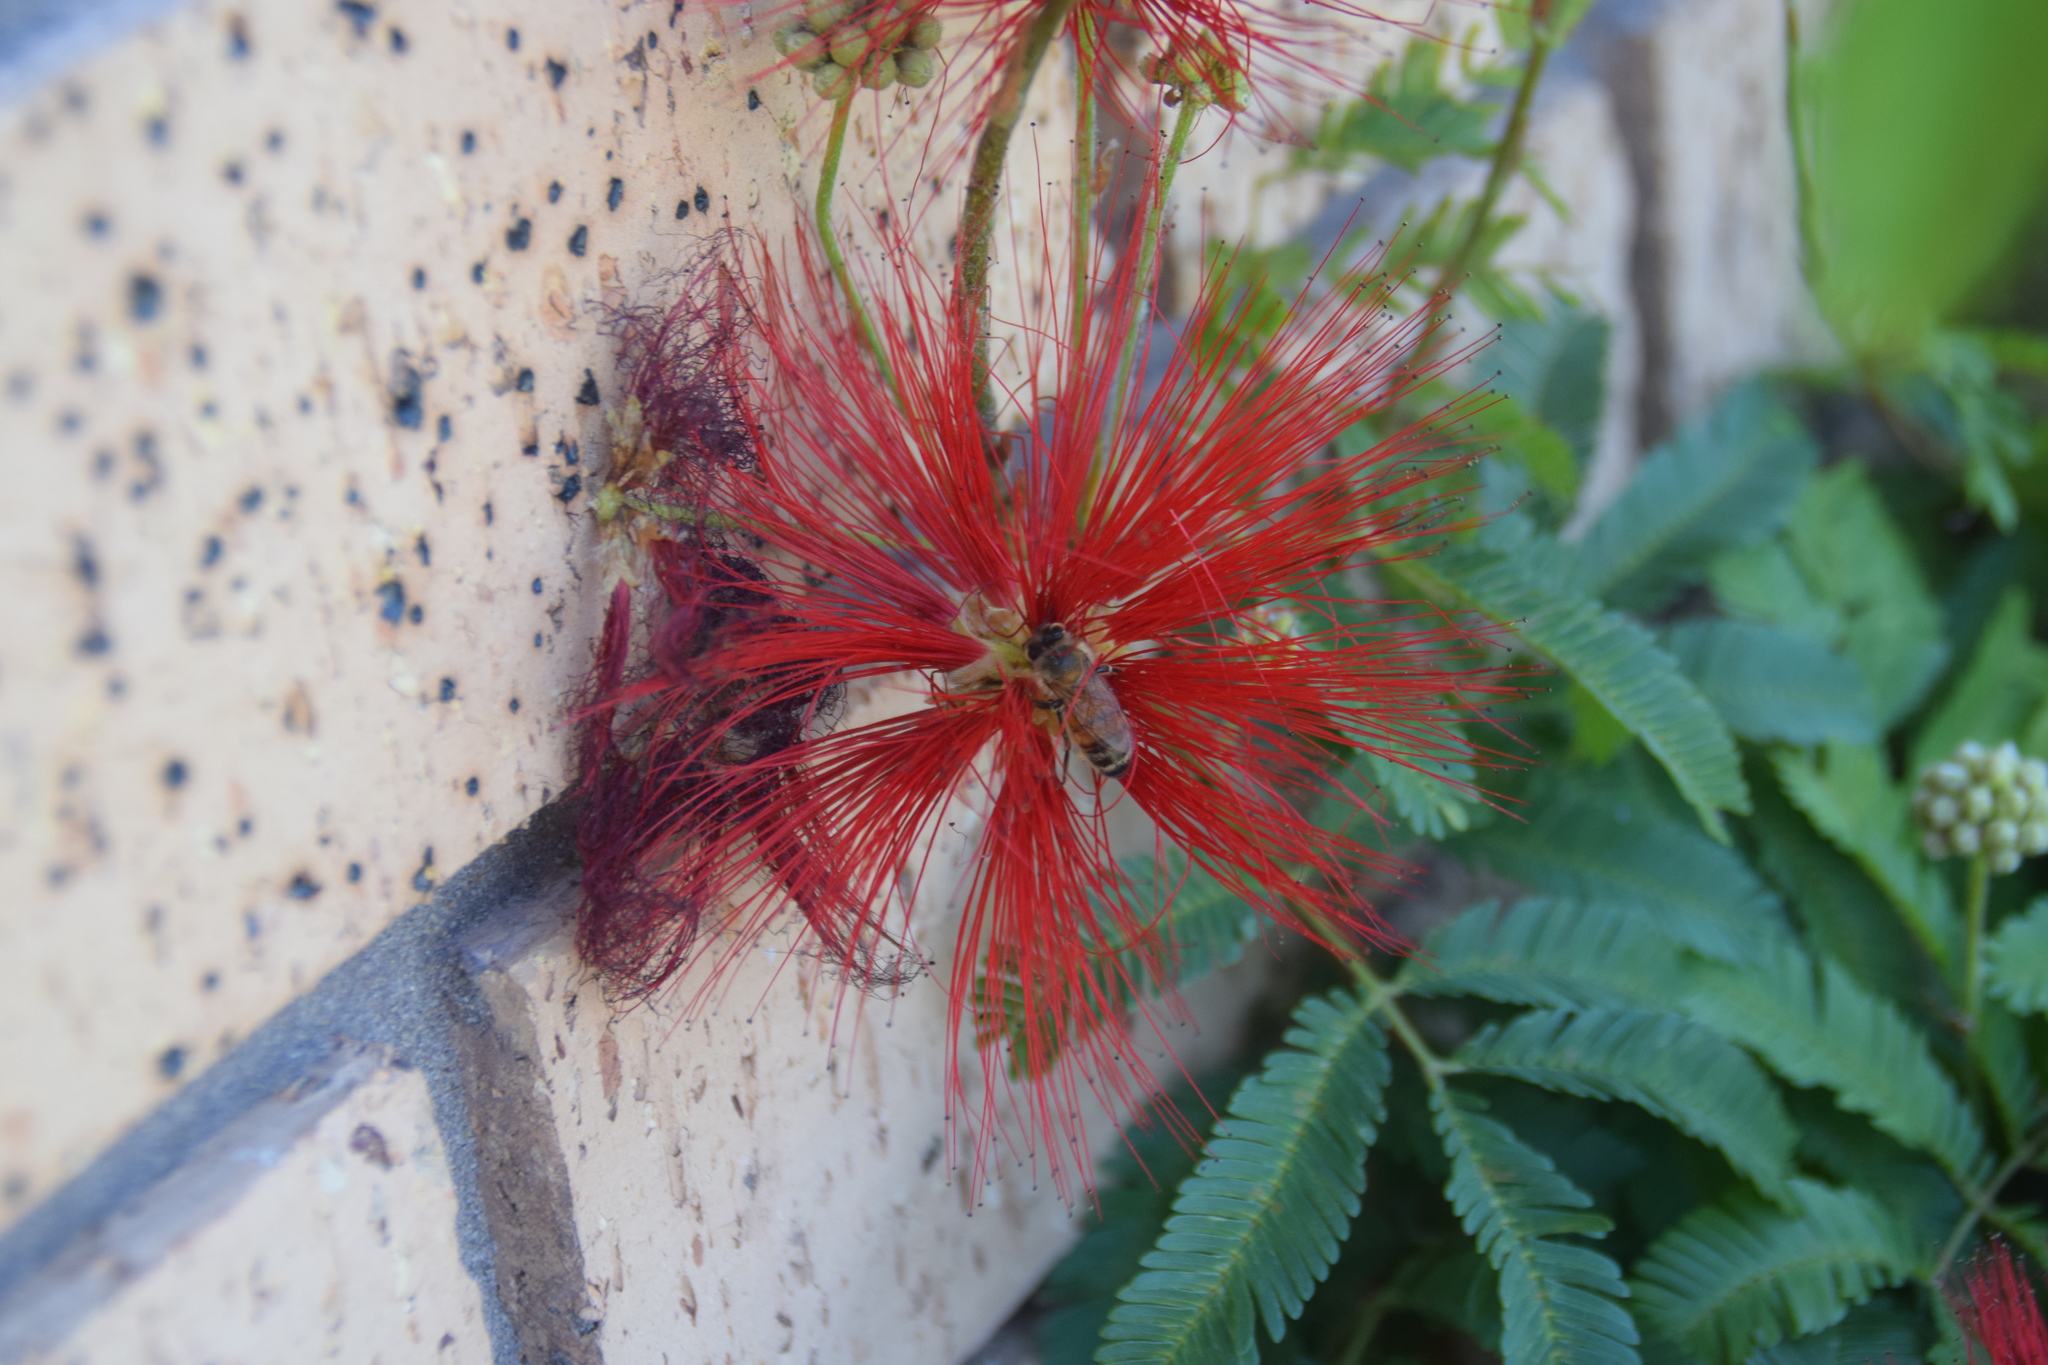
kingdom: Animalia
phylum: Arthropoda
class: Insecta
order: Hymenoptera
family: Apidae
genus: Apis
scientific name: Apis mellifera
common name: Honey bee
